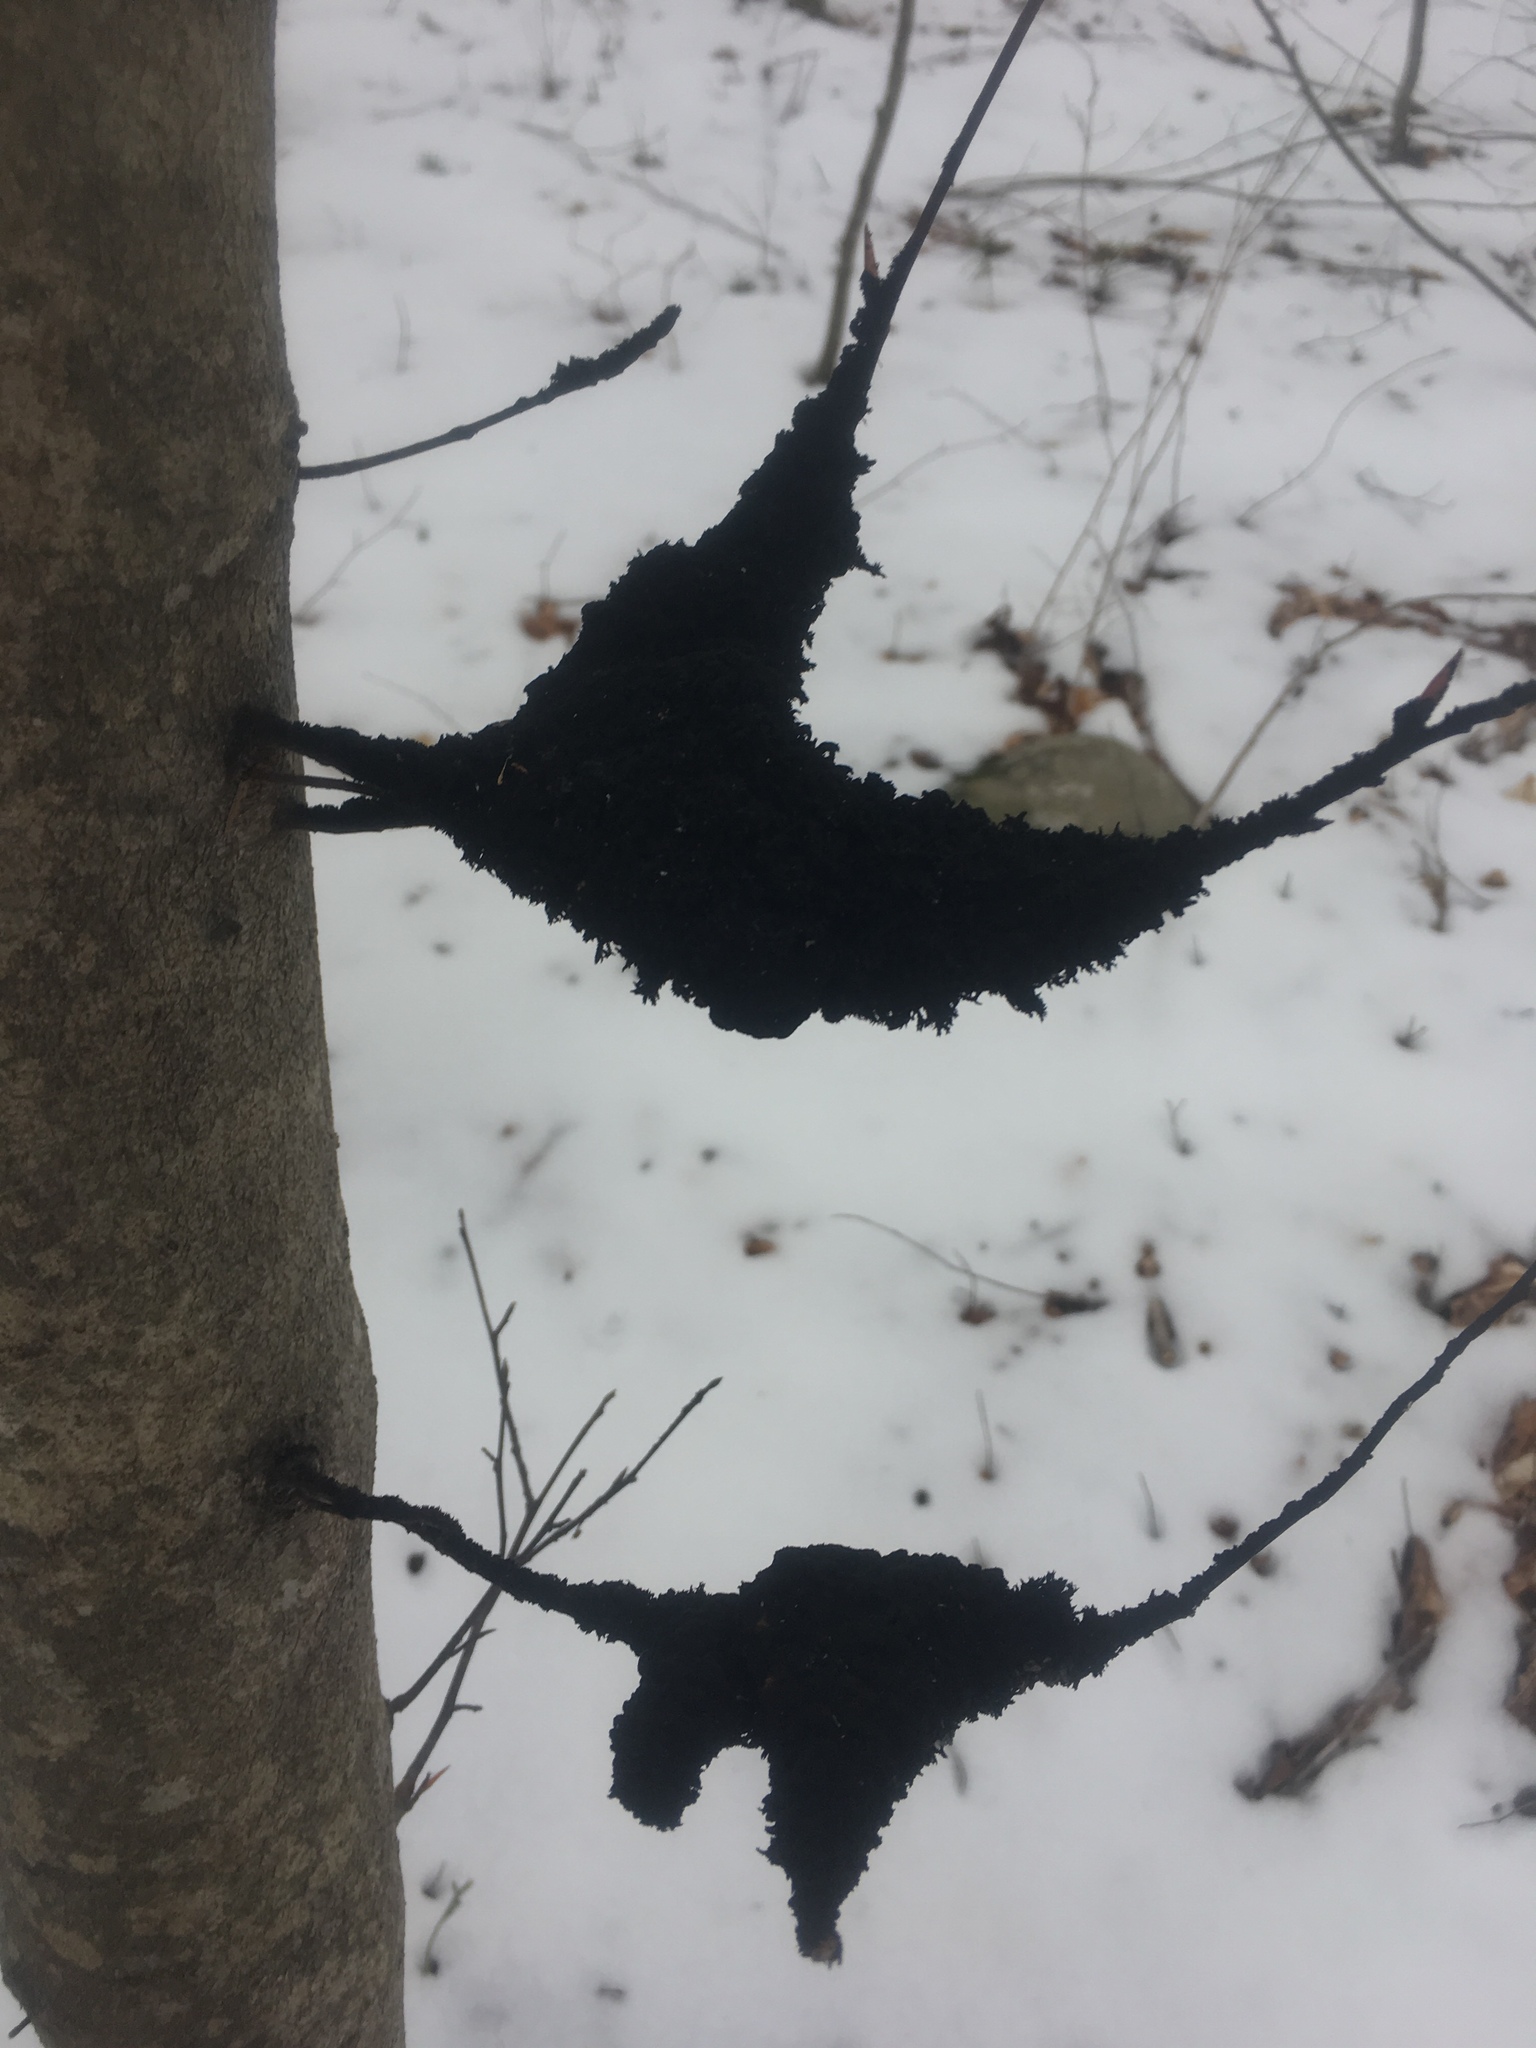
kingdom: Fungi
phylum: Ascomycota
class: Dothideomycetes
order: Capnodiales
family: Capnodiaceae
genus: Scorias
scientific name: Scorias spongiosa
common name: Black sooty mold
